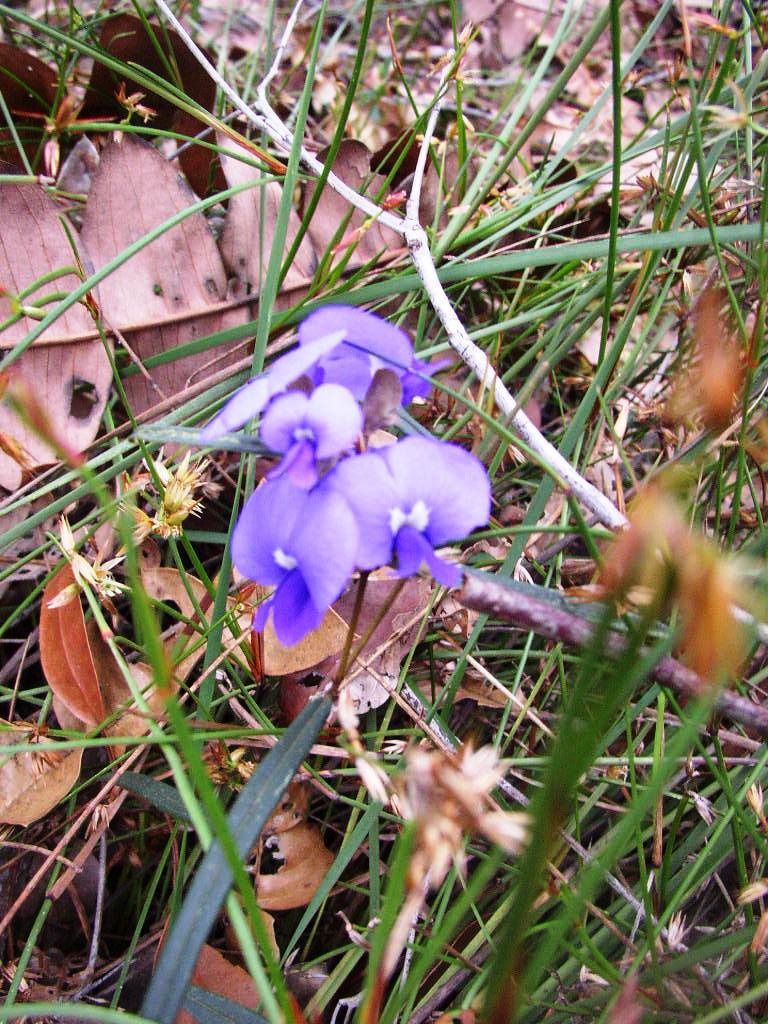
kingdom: Plantae
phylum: Tracheophyta
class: Magnoliopsida
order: Fabales
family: Fabaceae
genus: Hovea
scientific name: Hovea trisperma
